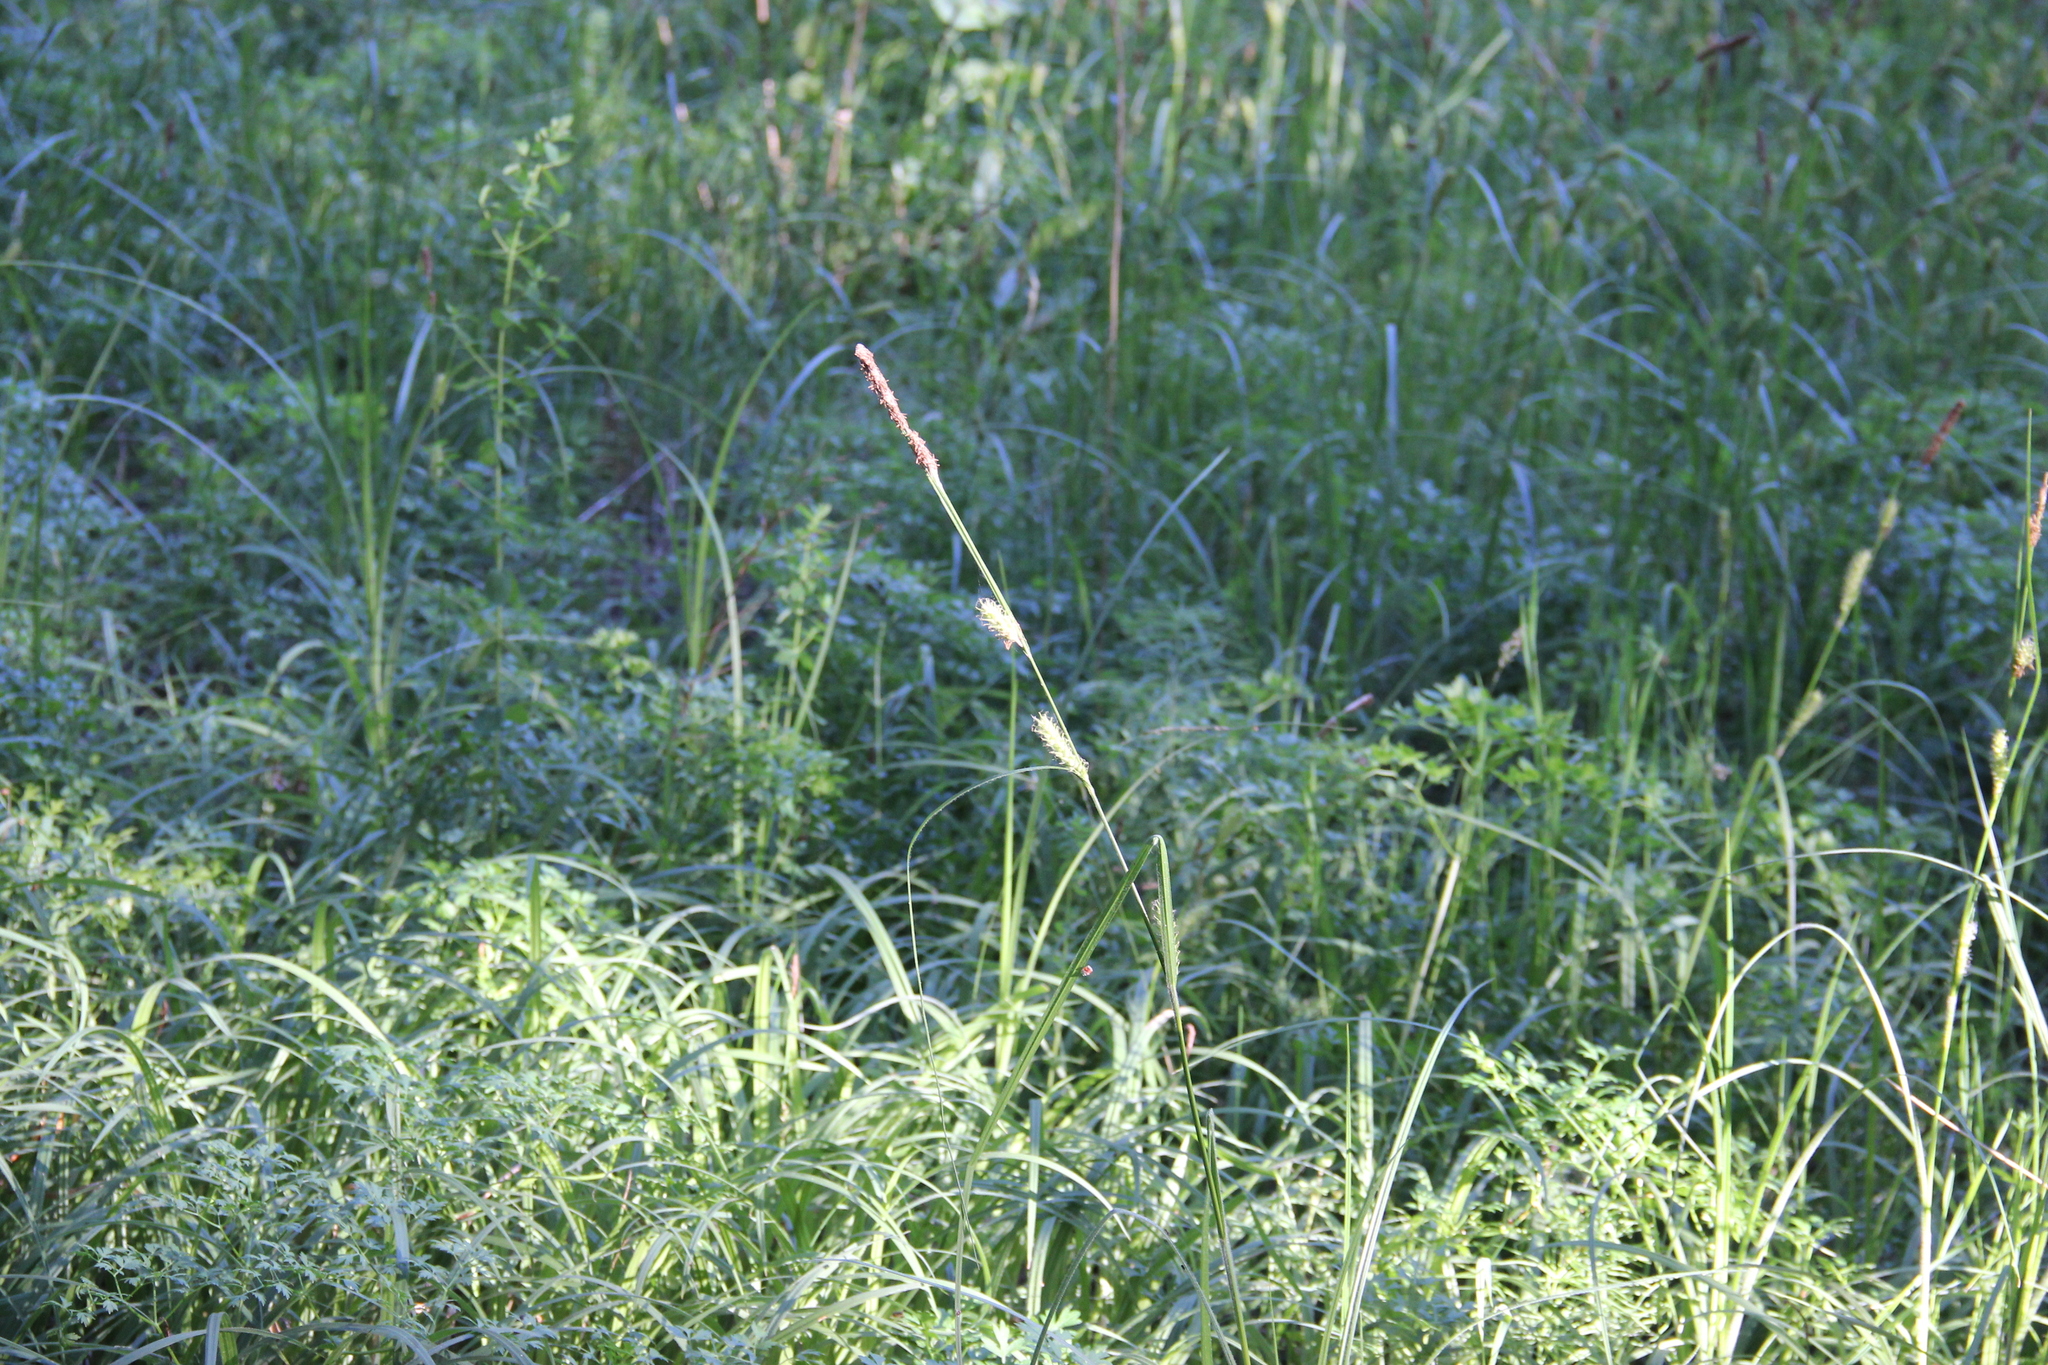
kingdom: Plantae
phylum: Tracheophyta
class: Liliopsida
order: Poales
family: Cyperaceae
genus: Carex
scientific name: Carex hirta
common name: Hairy sedge
